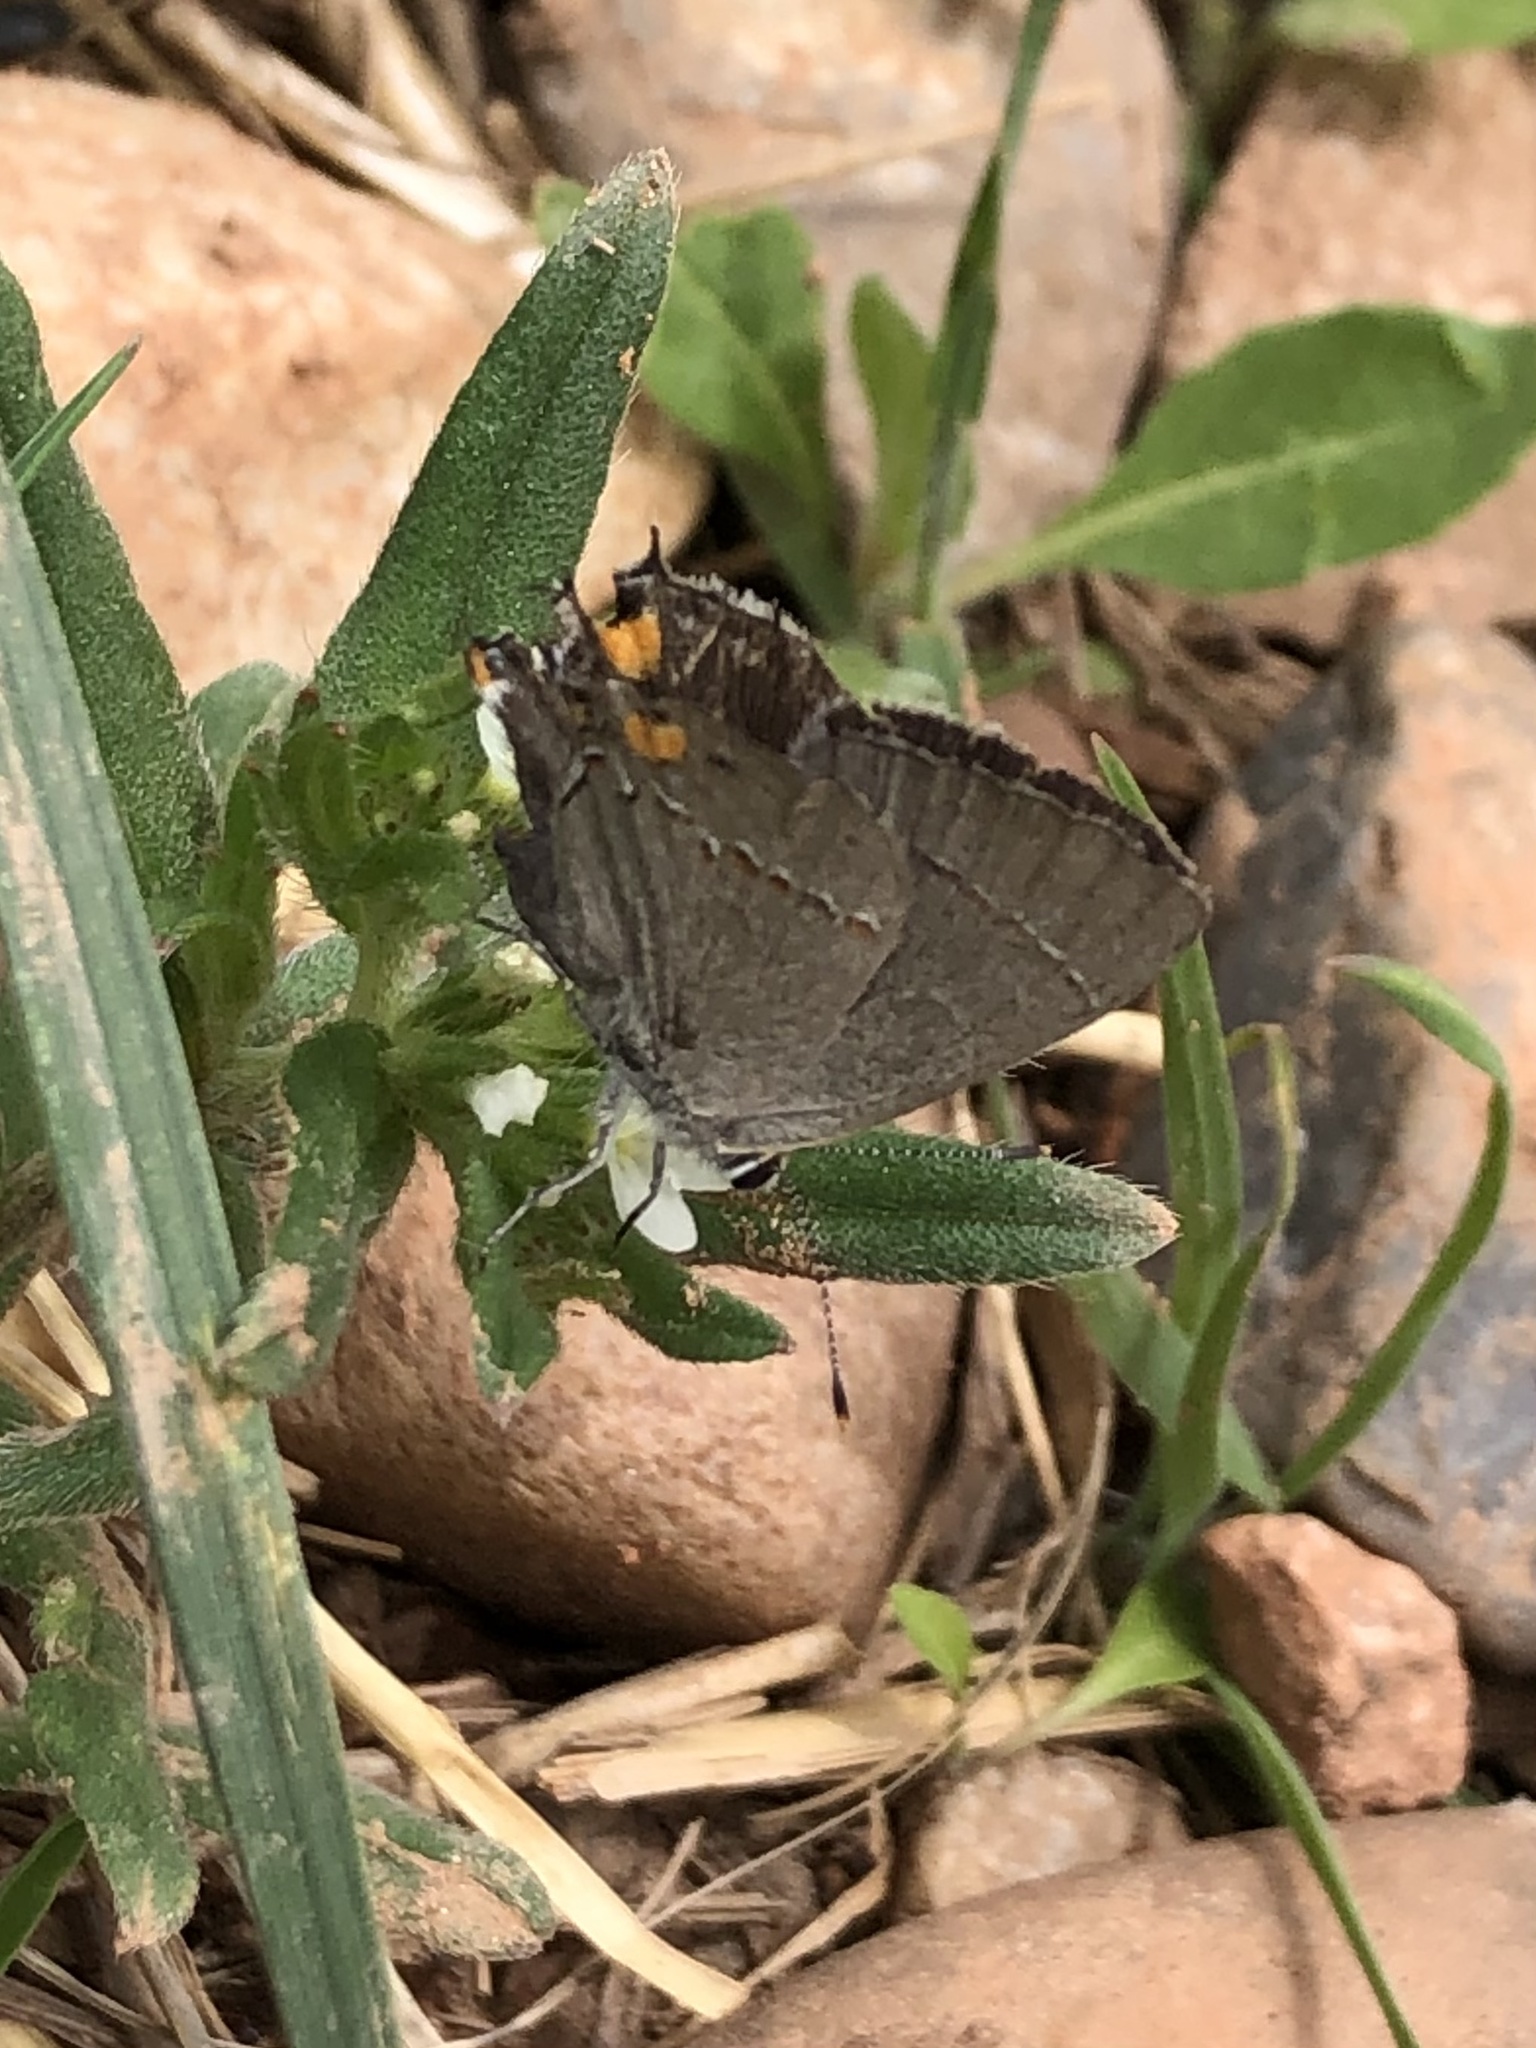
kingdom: Animalia
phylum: Arthropoda
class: Insecta
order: Lepidoptera
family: Lycaenidae
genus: Strymon
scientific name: Strymon melinus
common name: Gray hairstreak
